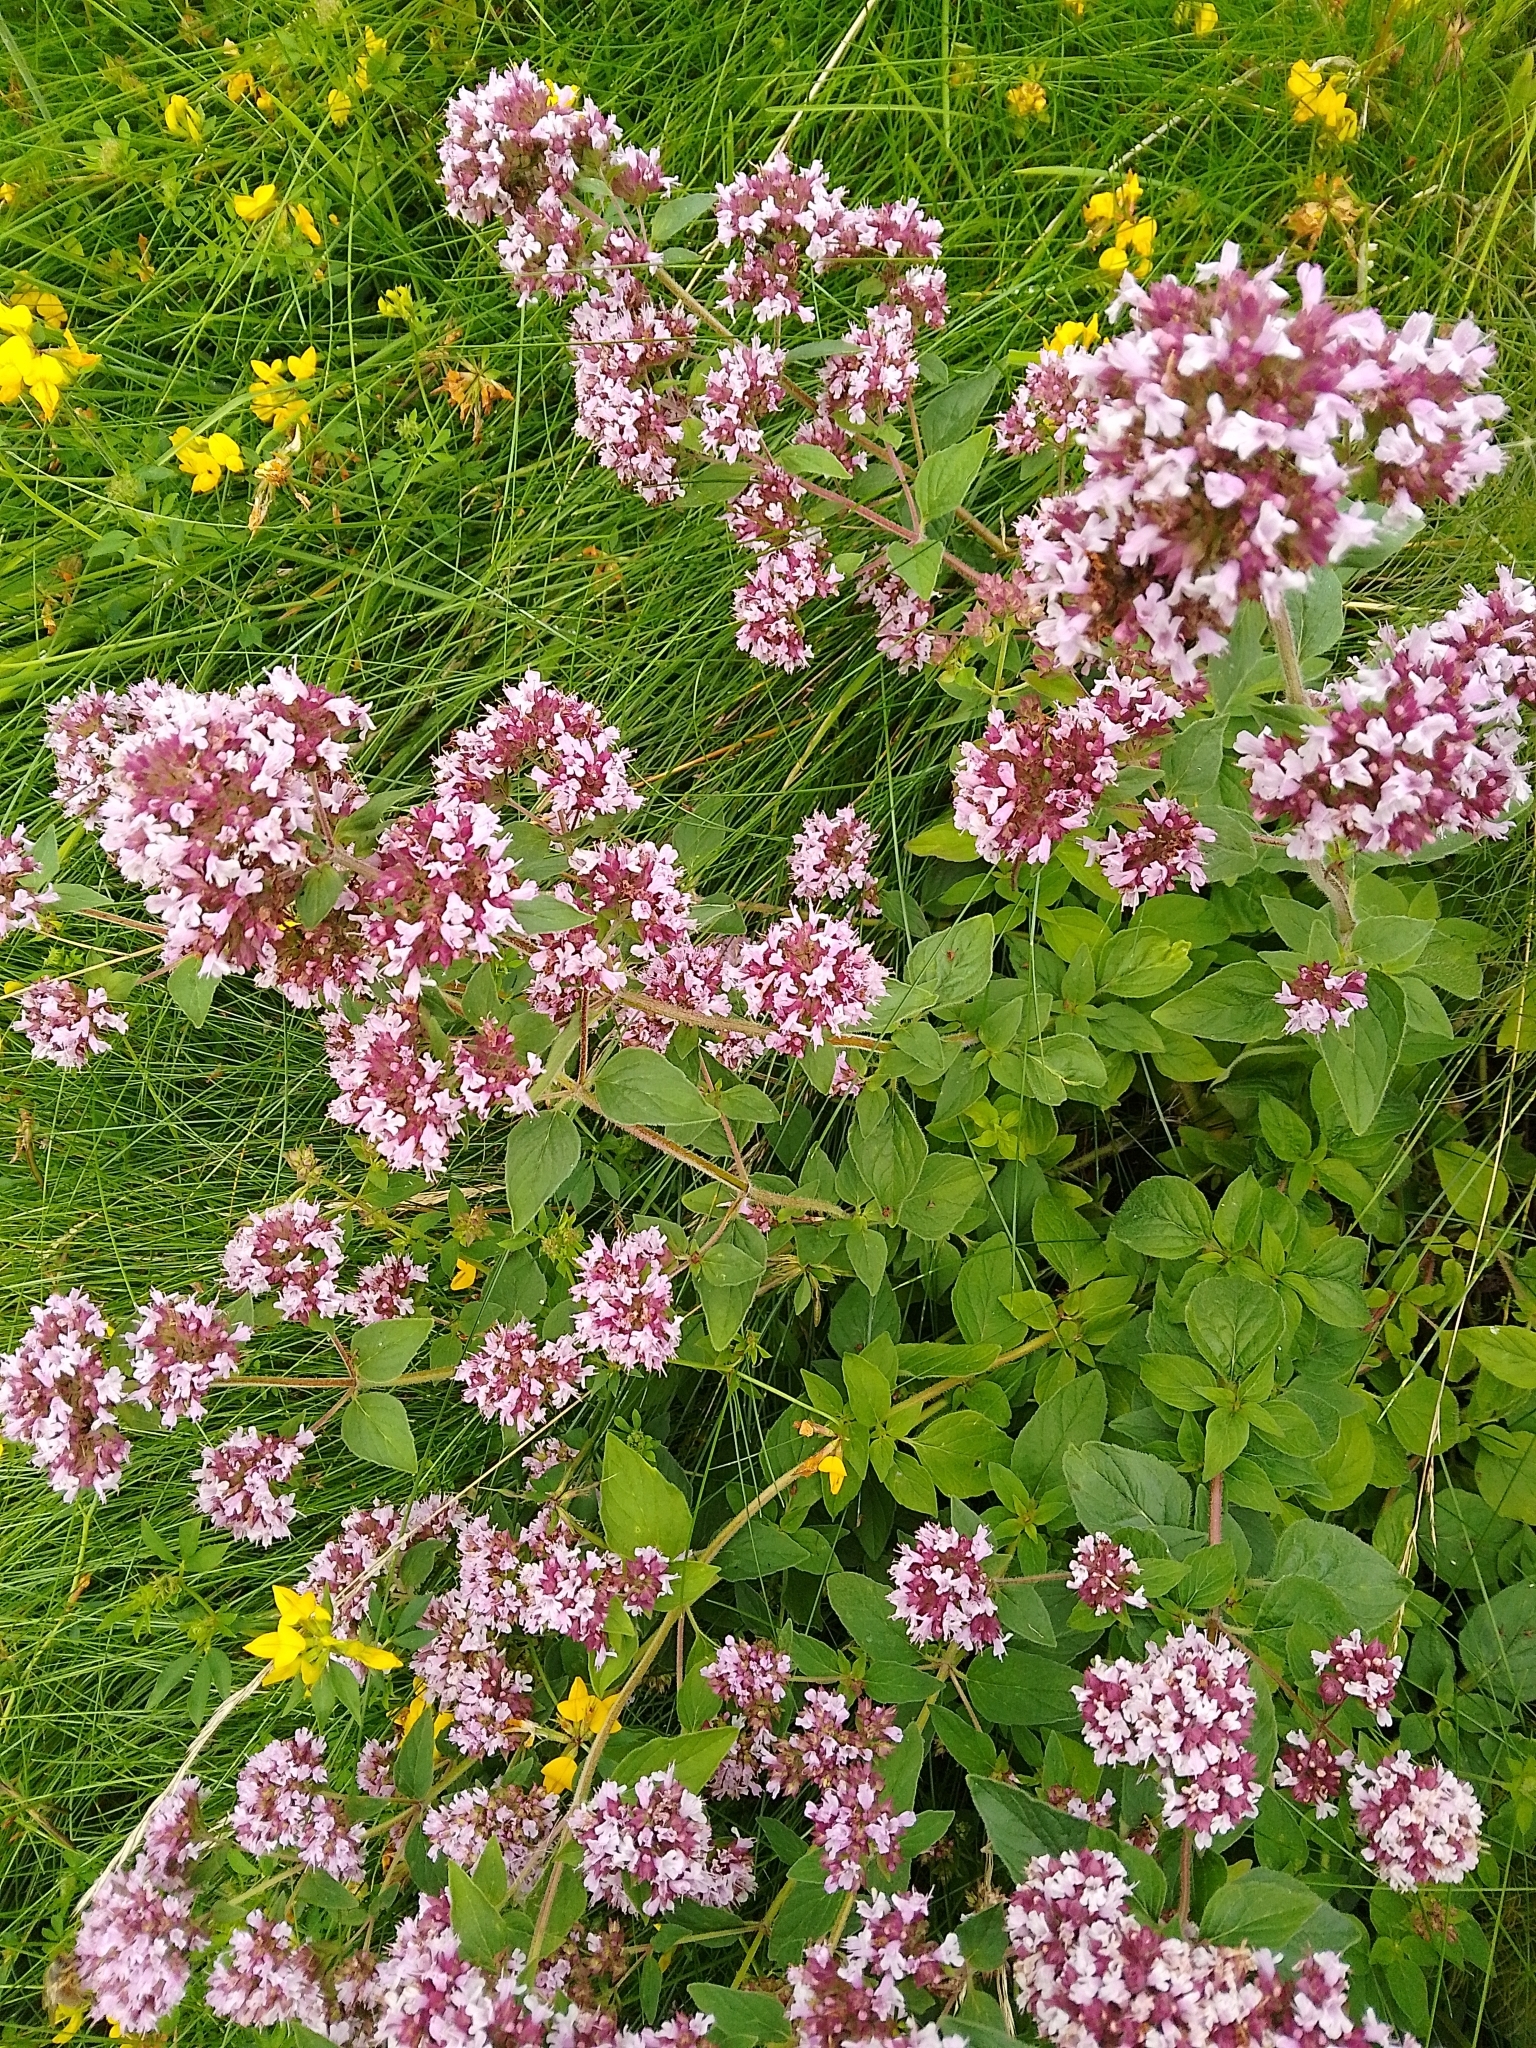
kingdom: Plantae
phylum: Tracheophyta
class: Magnoliopsida
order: Lamiales
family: Lamiaceae
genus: Origanum
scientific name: Origanum vulgare
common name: Wild marjoram
